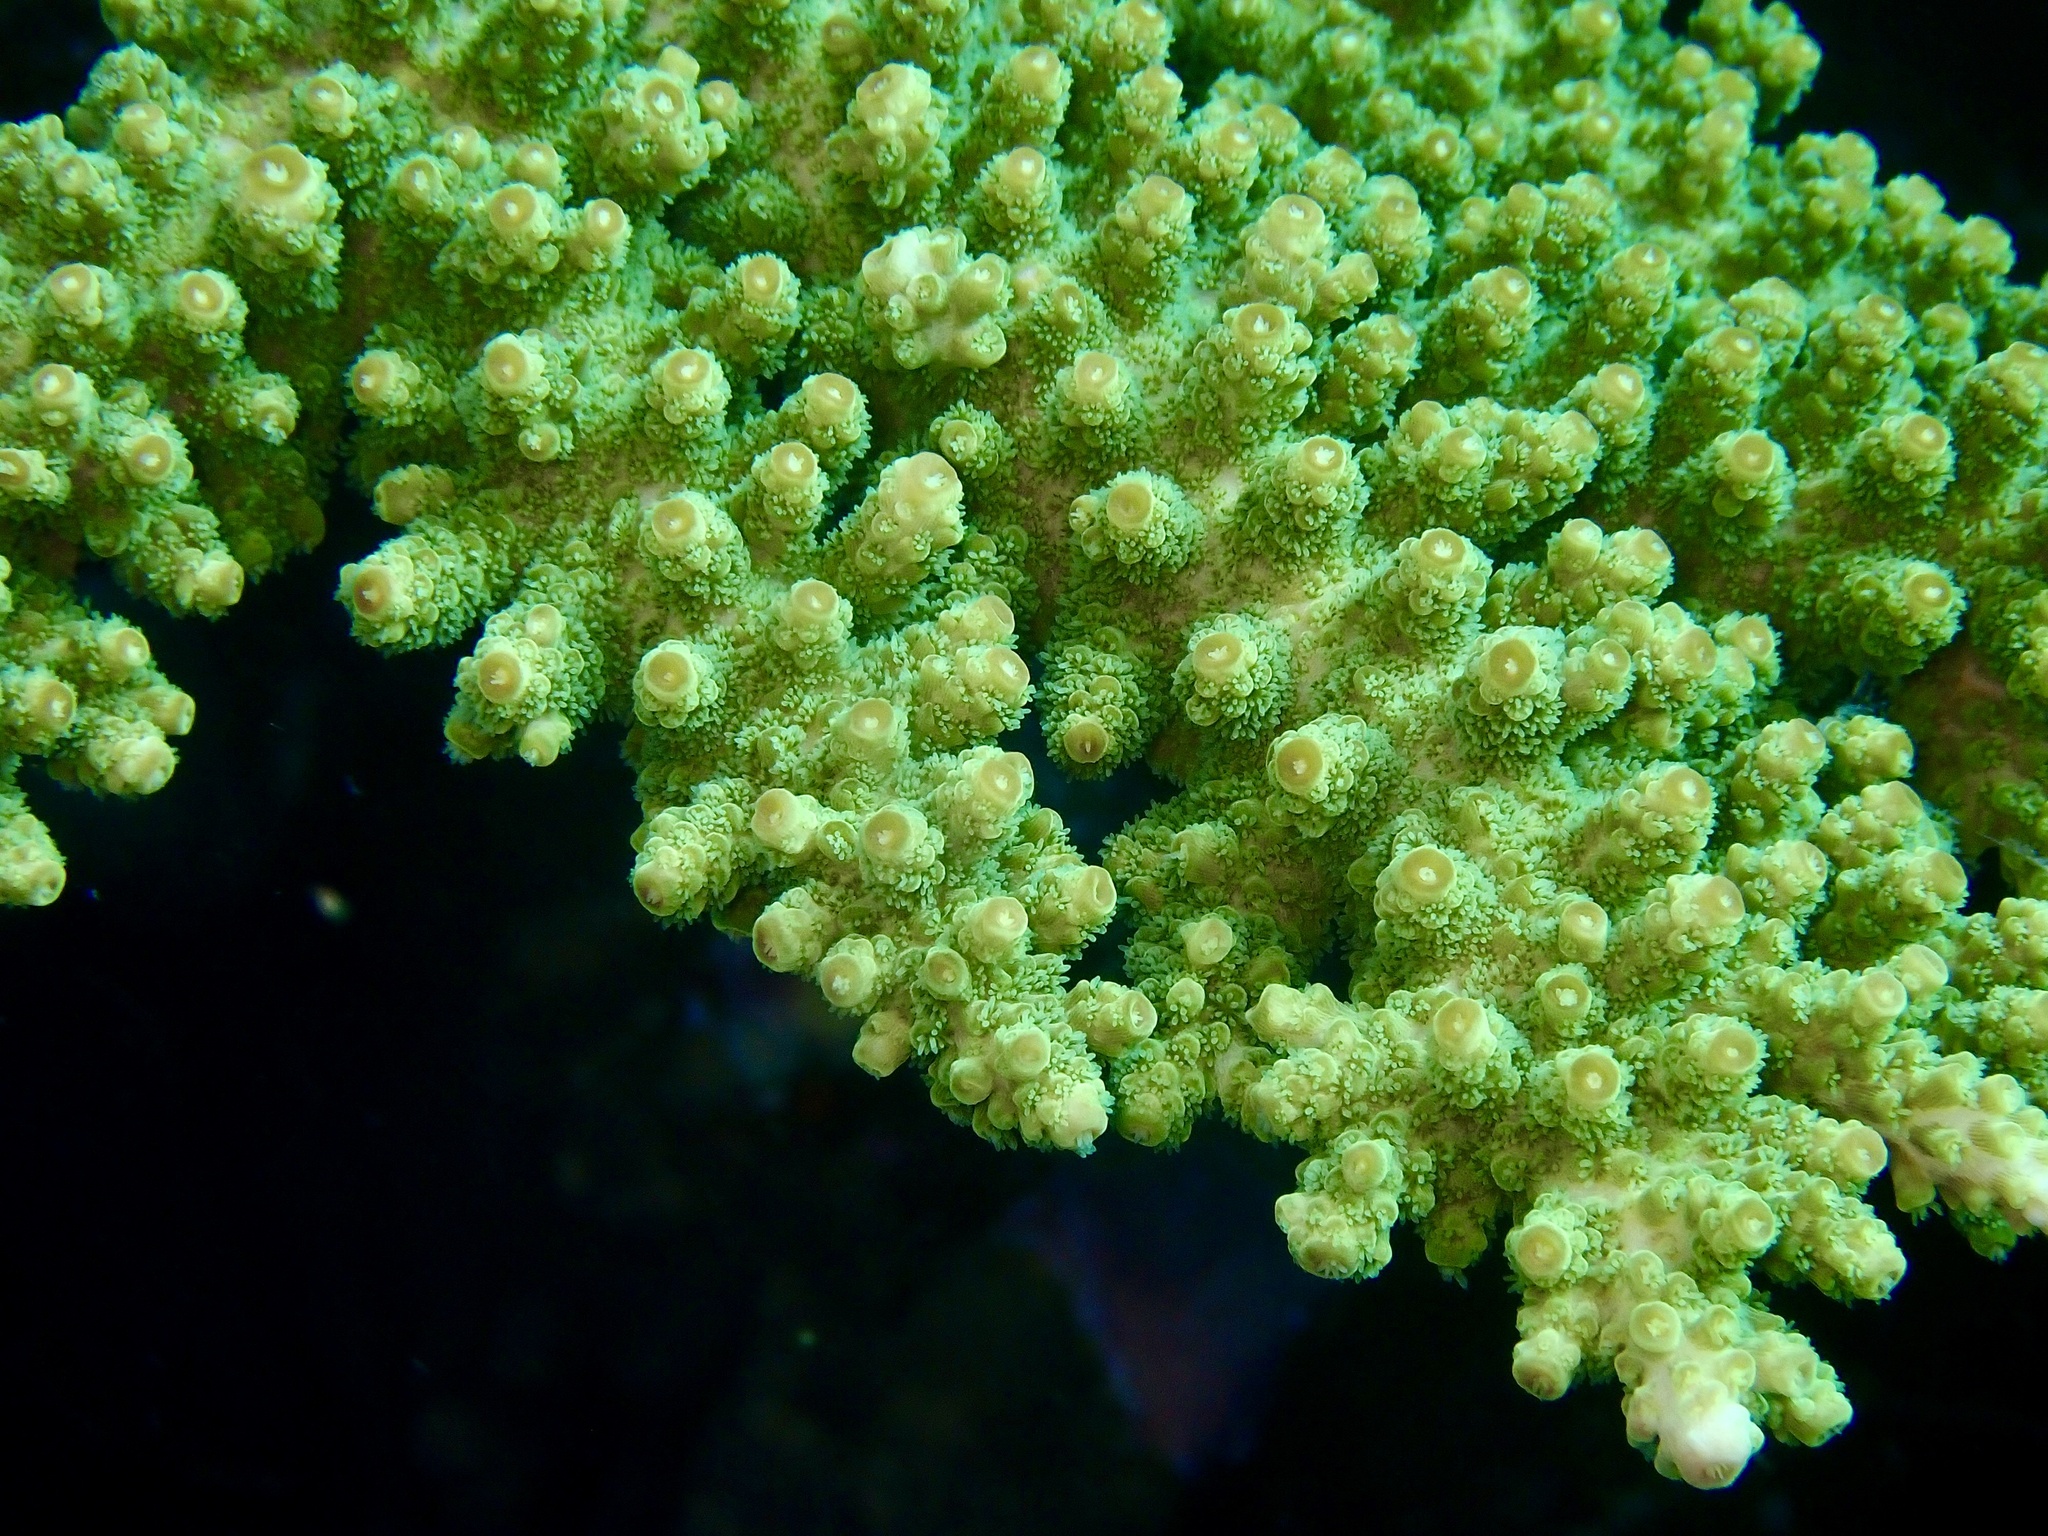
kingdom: Animalia
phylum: Cnidaria
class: Anthozoa
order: Scleractinia
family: Acroporidae
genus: Acropora
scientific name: Acropora florida
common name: Branch coral
